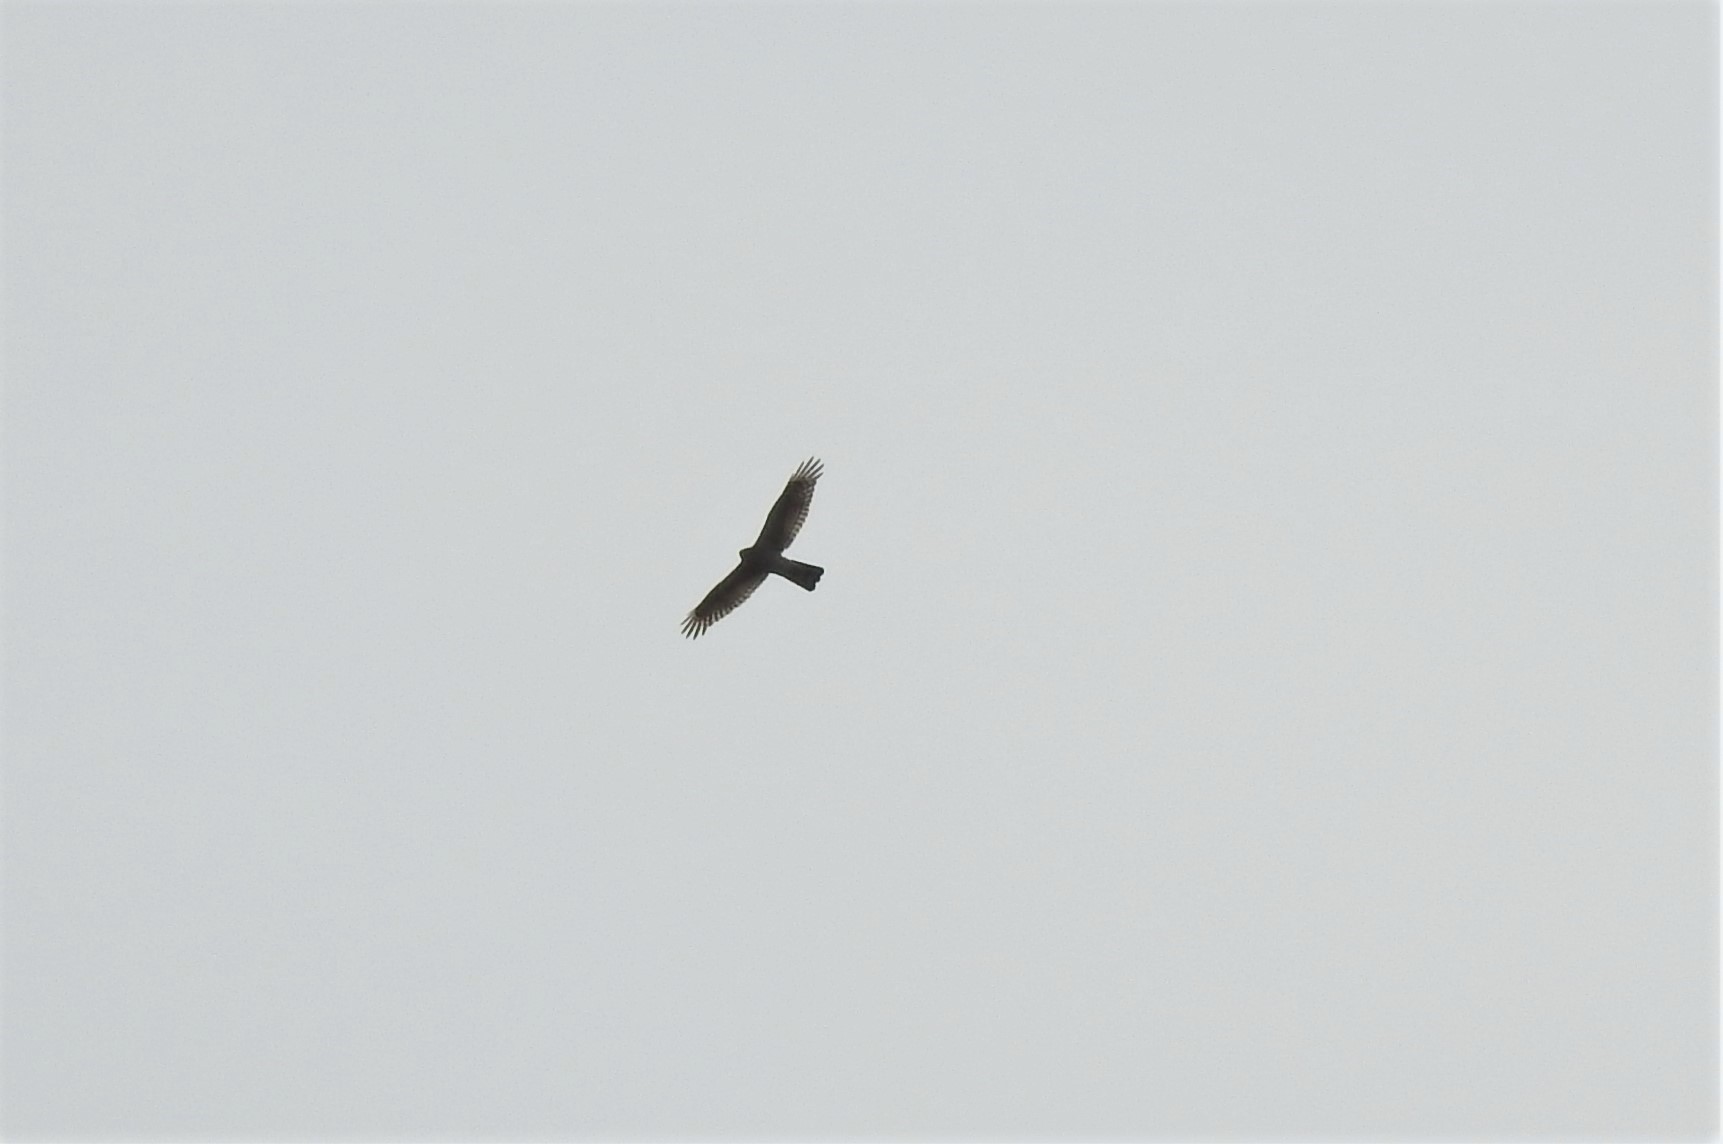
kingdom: Animalia
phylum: Chordata
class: Aves
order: Accipitriformes
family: Accipitridae
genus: Accipiter
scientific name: Accipiter nisus
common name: Eurasian sparrowhawk
